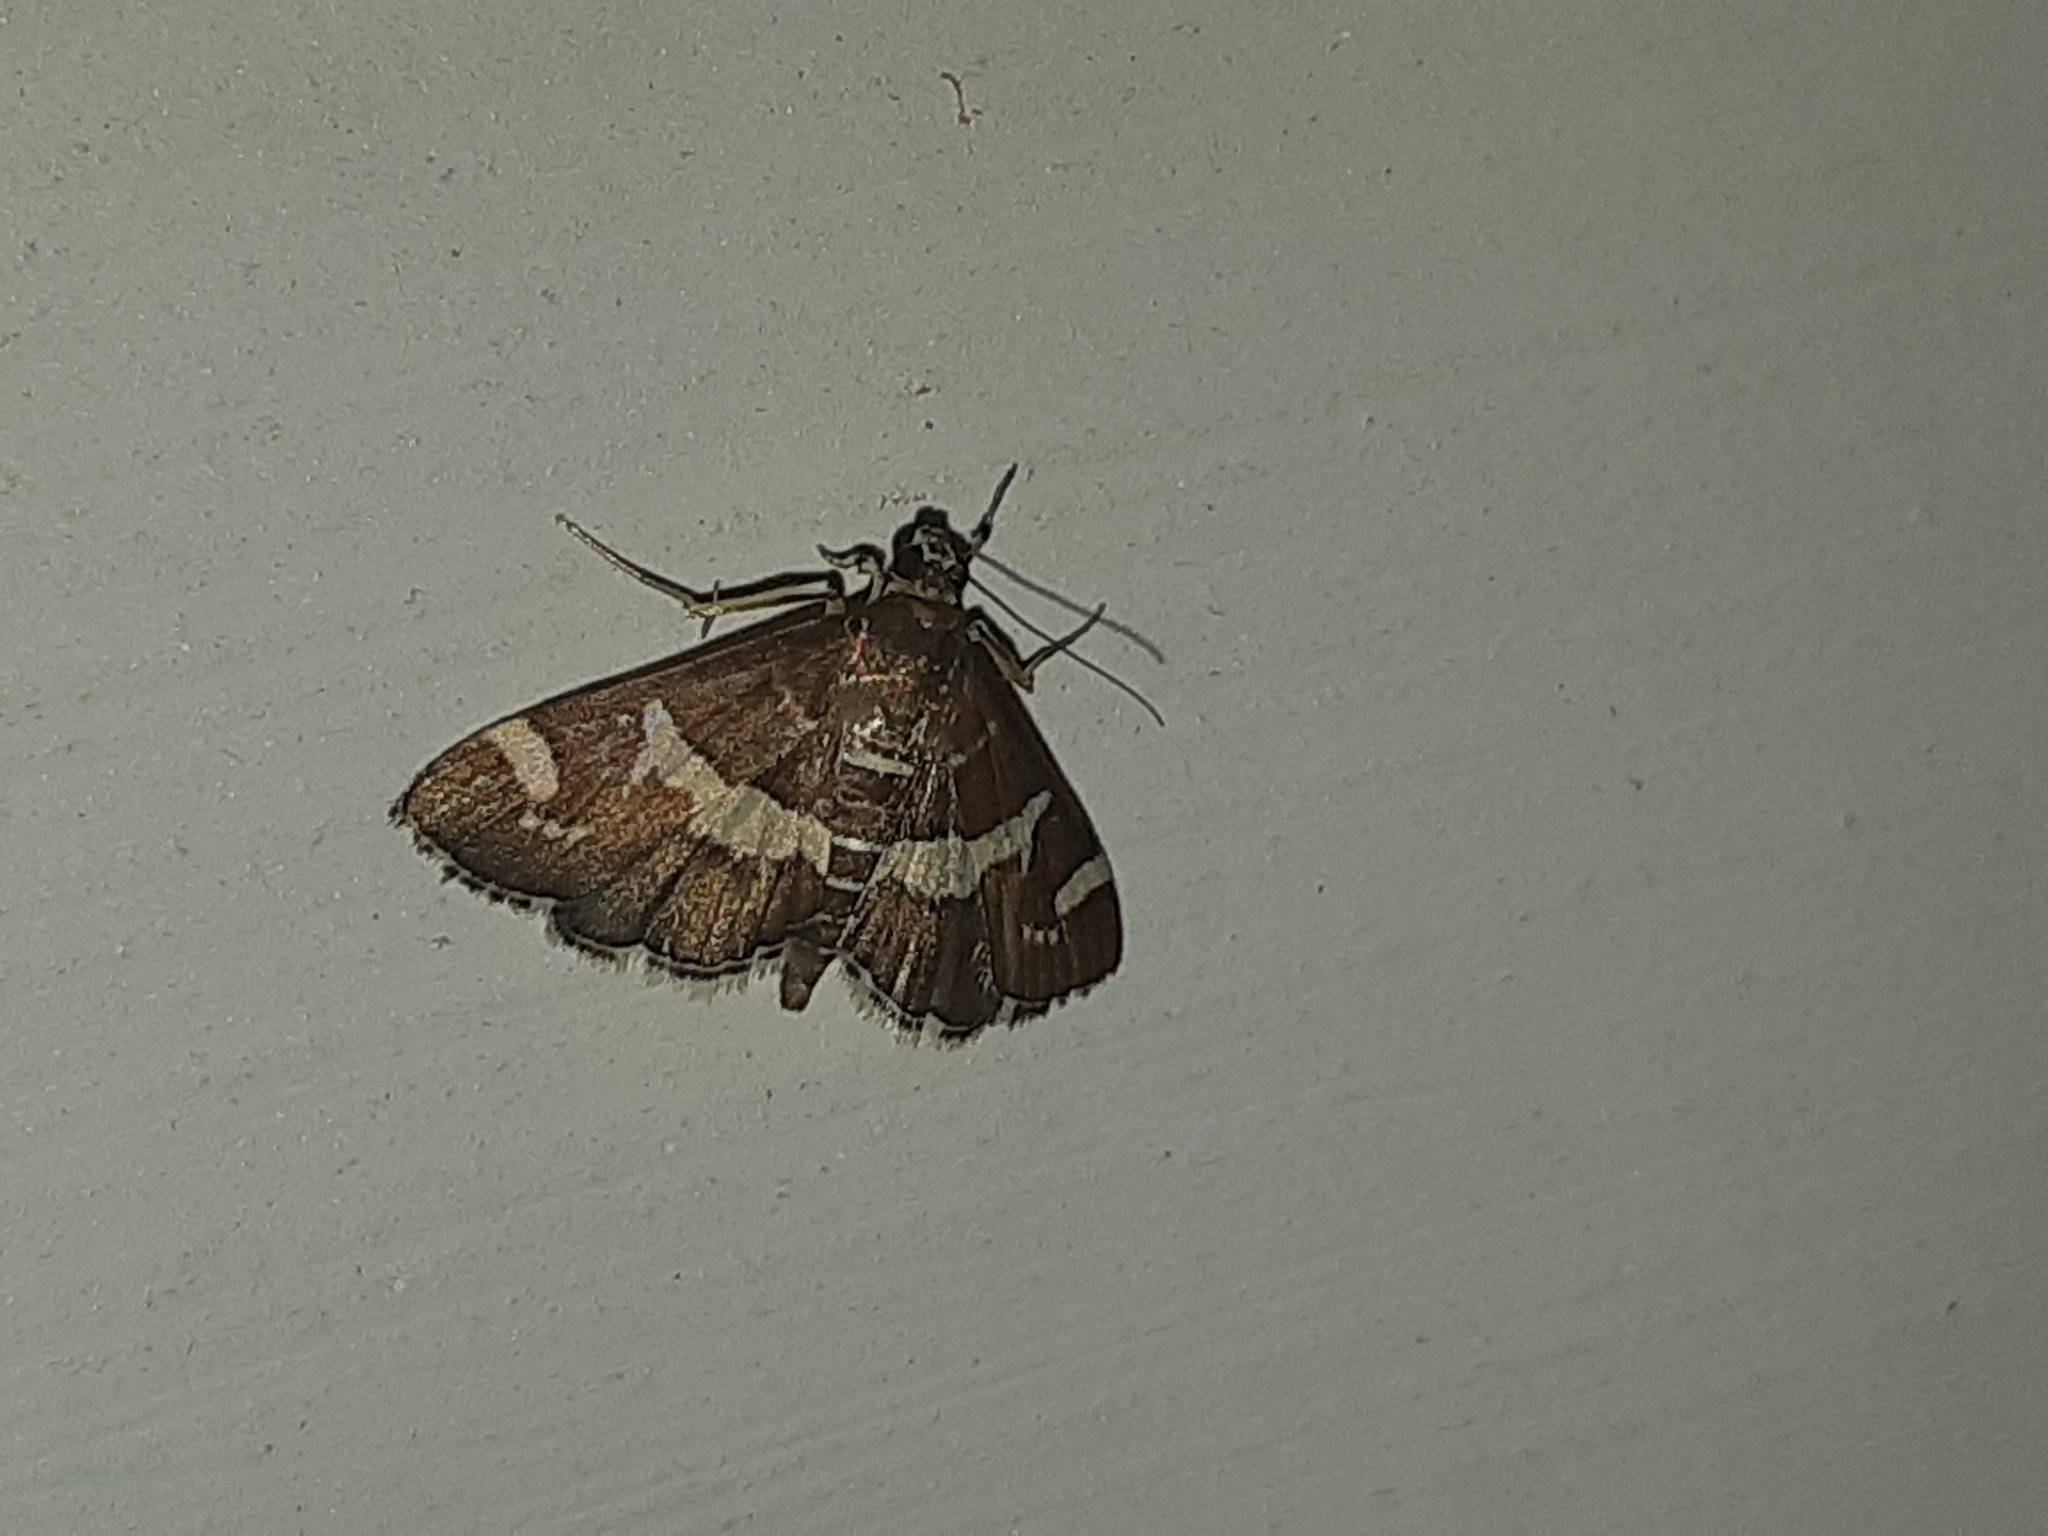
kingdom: Animalia
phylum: Arthropoda
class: Insecta
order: Lepidoptera
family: Crambidae
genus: Spoladea
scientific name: Spoladea recurvalis
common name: Beet webworm moth
